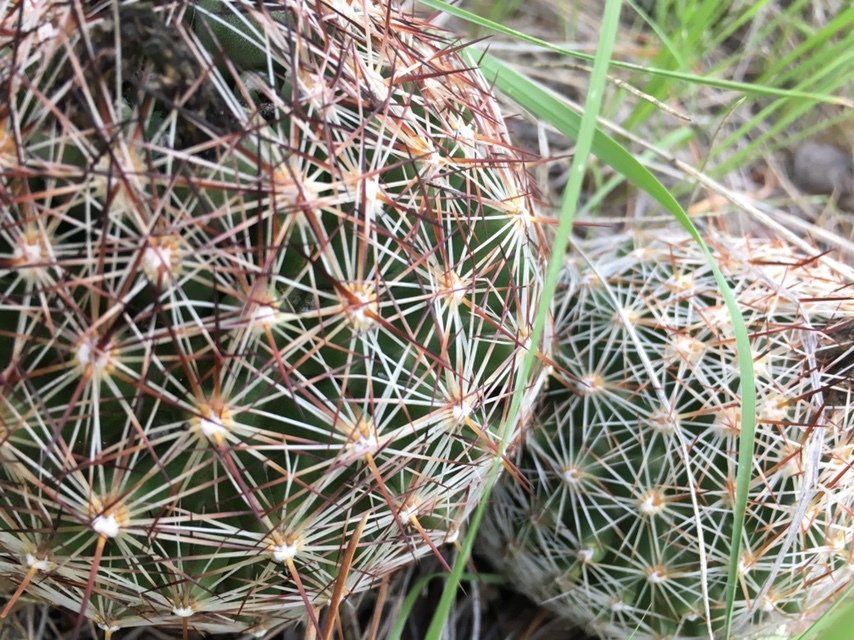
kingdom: Plantae
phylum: Tracheophyta
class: Magnoliopsida
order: Caryophyllales
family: Cactaceae
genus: Pelecyphora
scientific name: Pelecyphora vivipara
